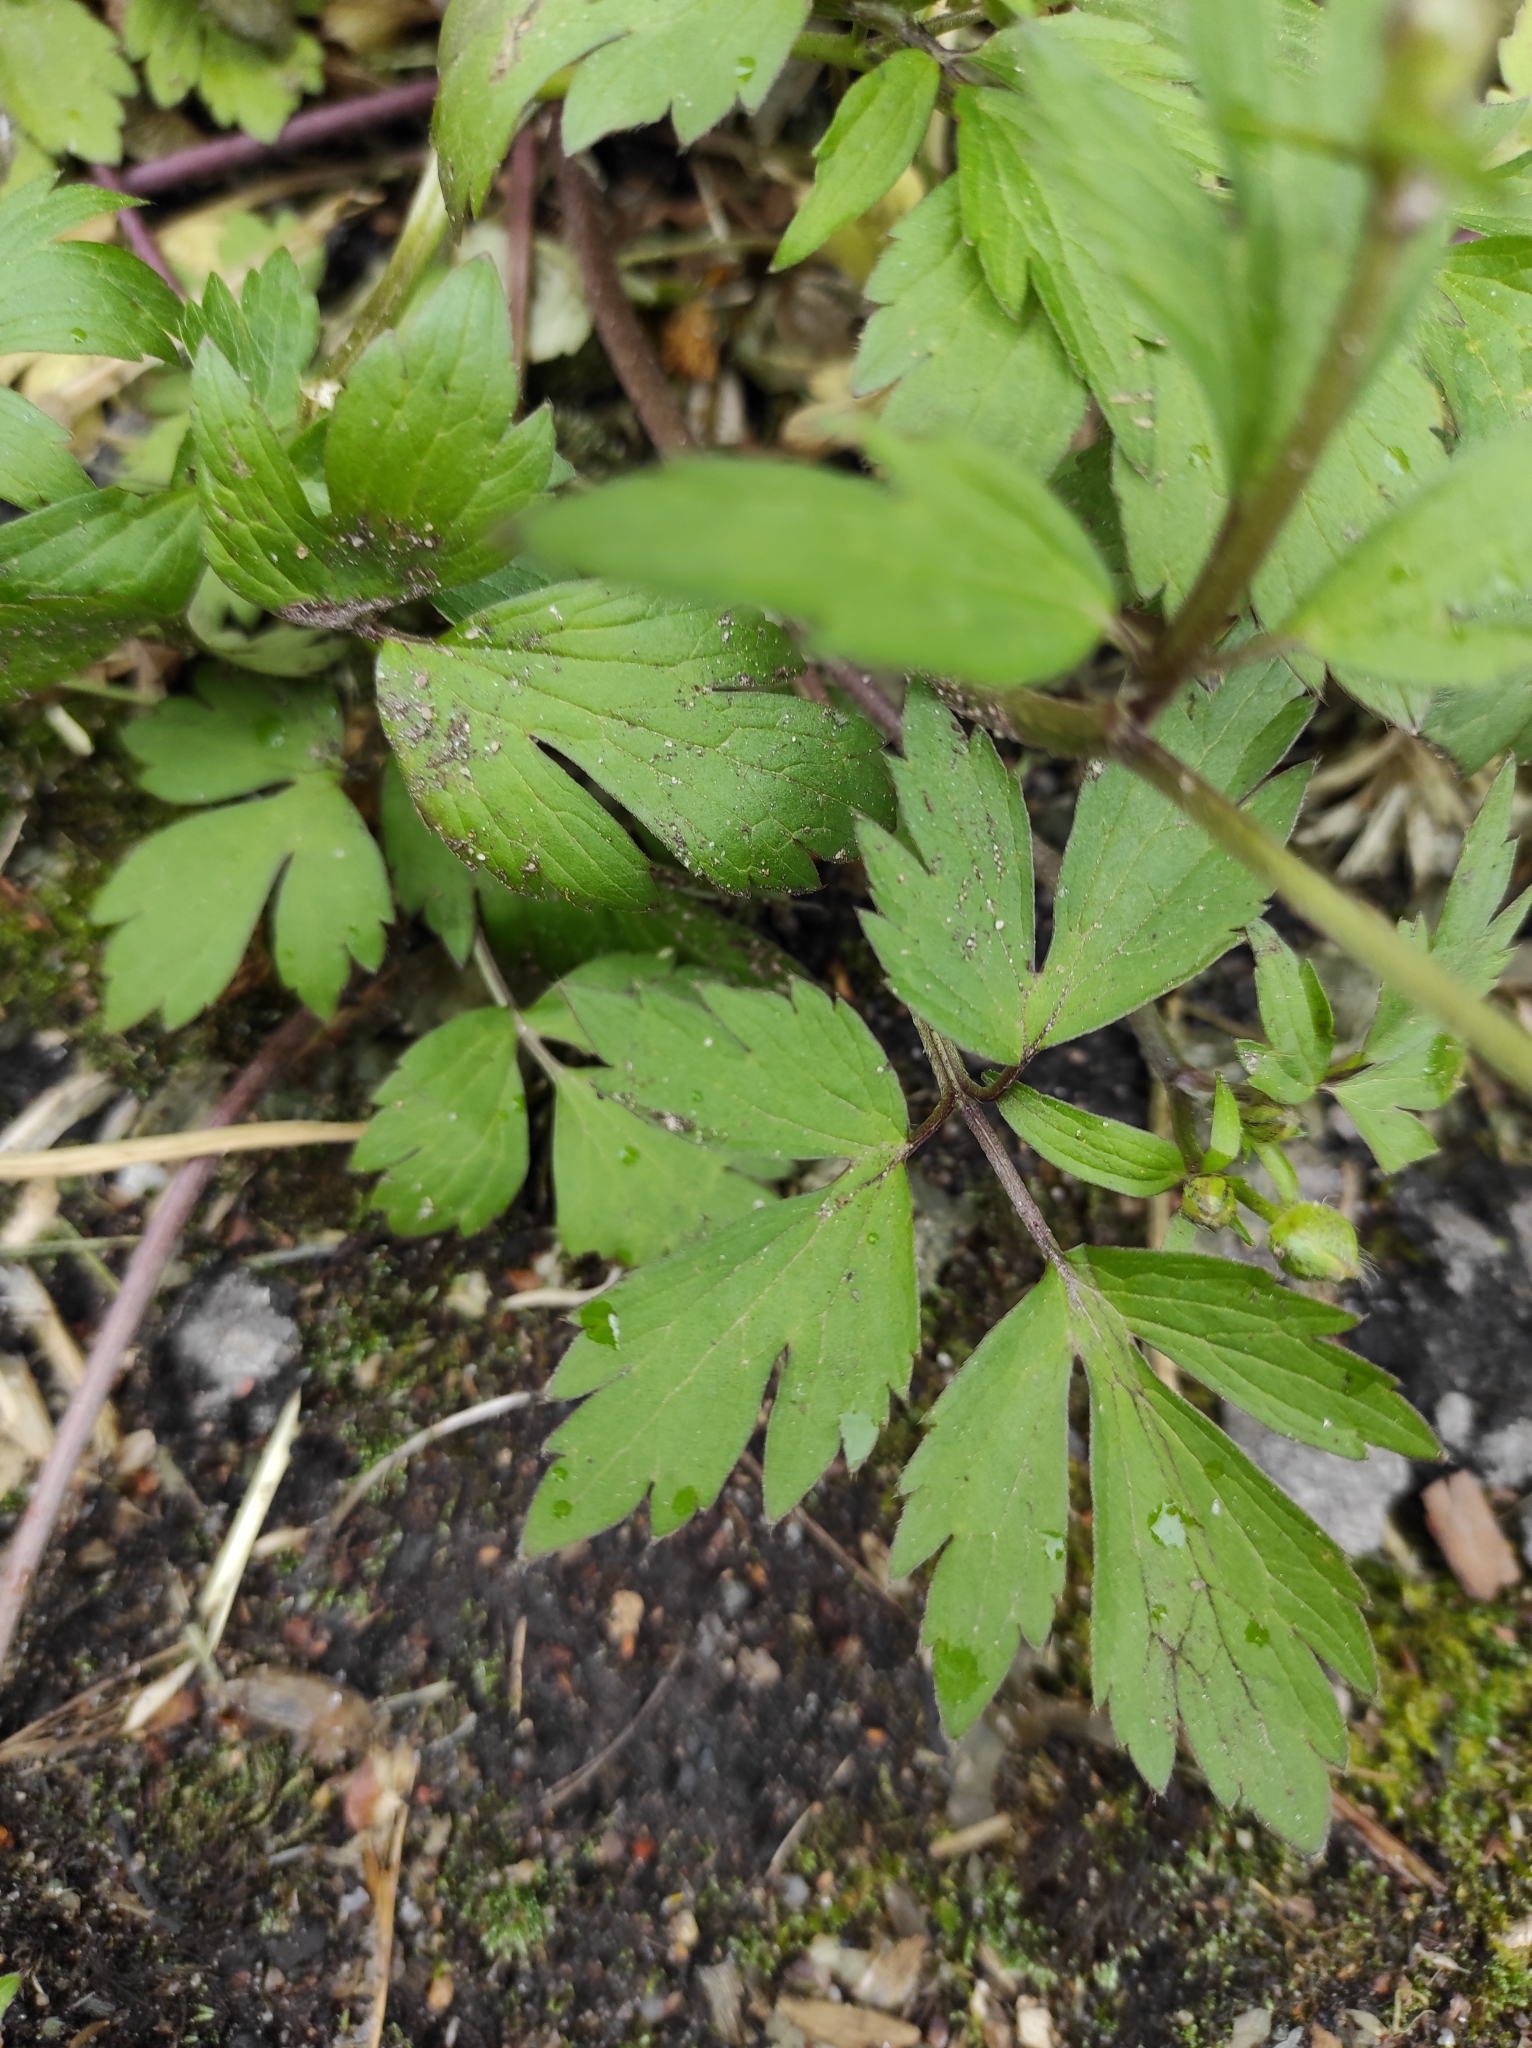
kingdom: Plantae
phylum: Tracheophyta
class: Magnoliopsida
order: Ranunculales
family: Ranunculaceae
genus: Ranunculus
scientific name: Ranunculus repens
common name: Creeping buttercup
